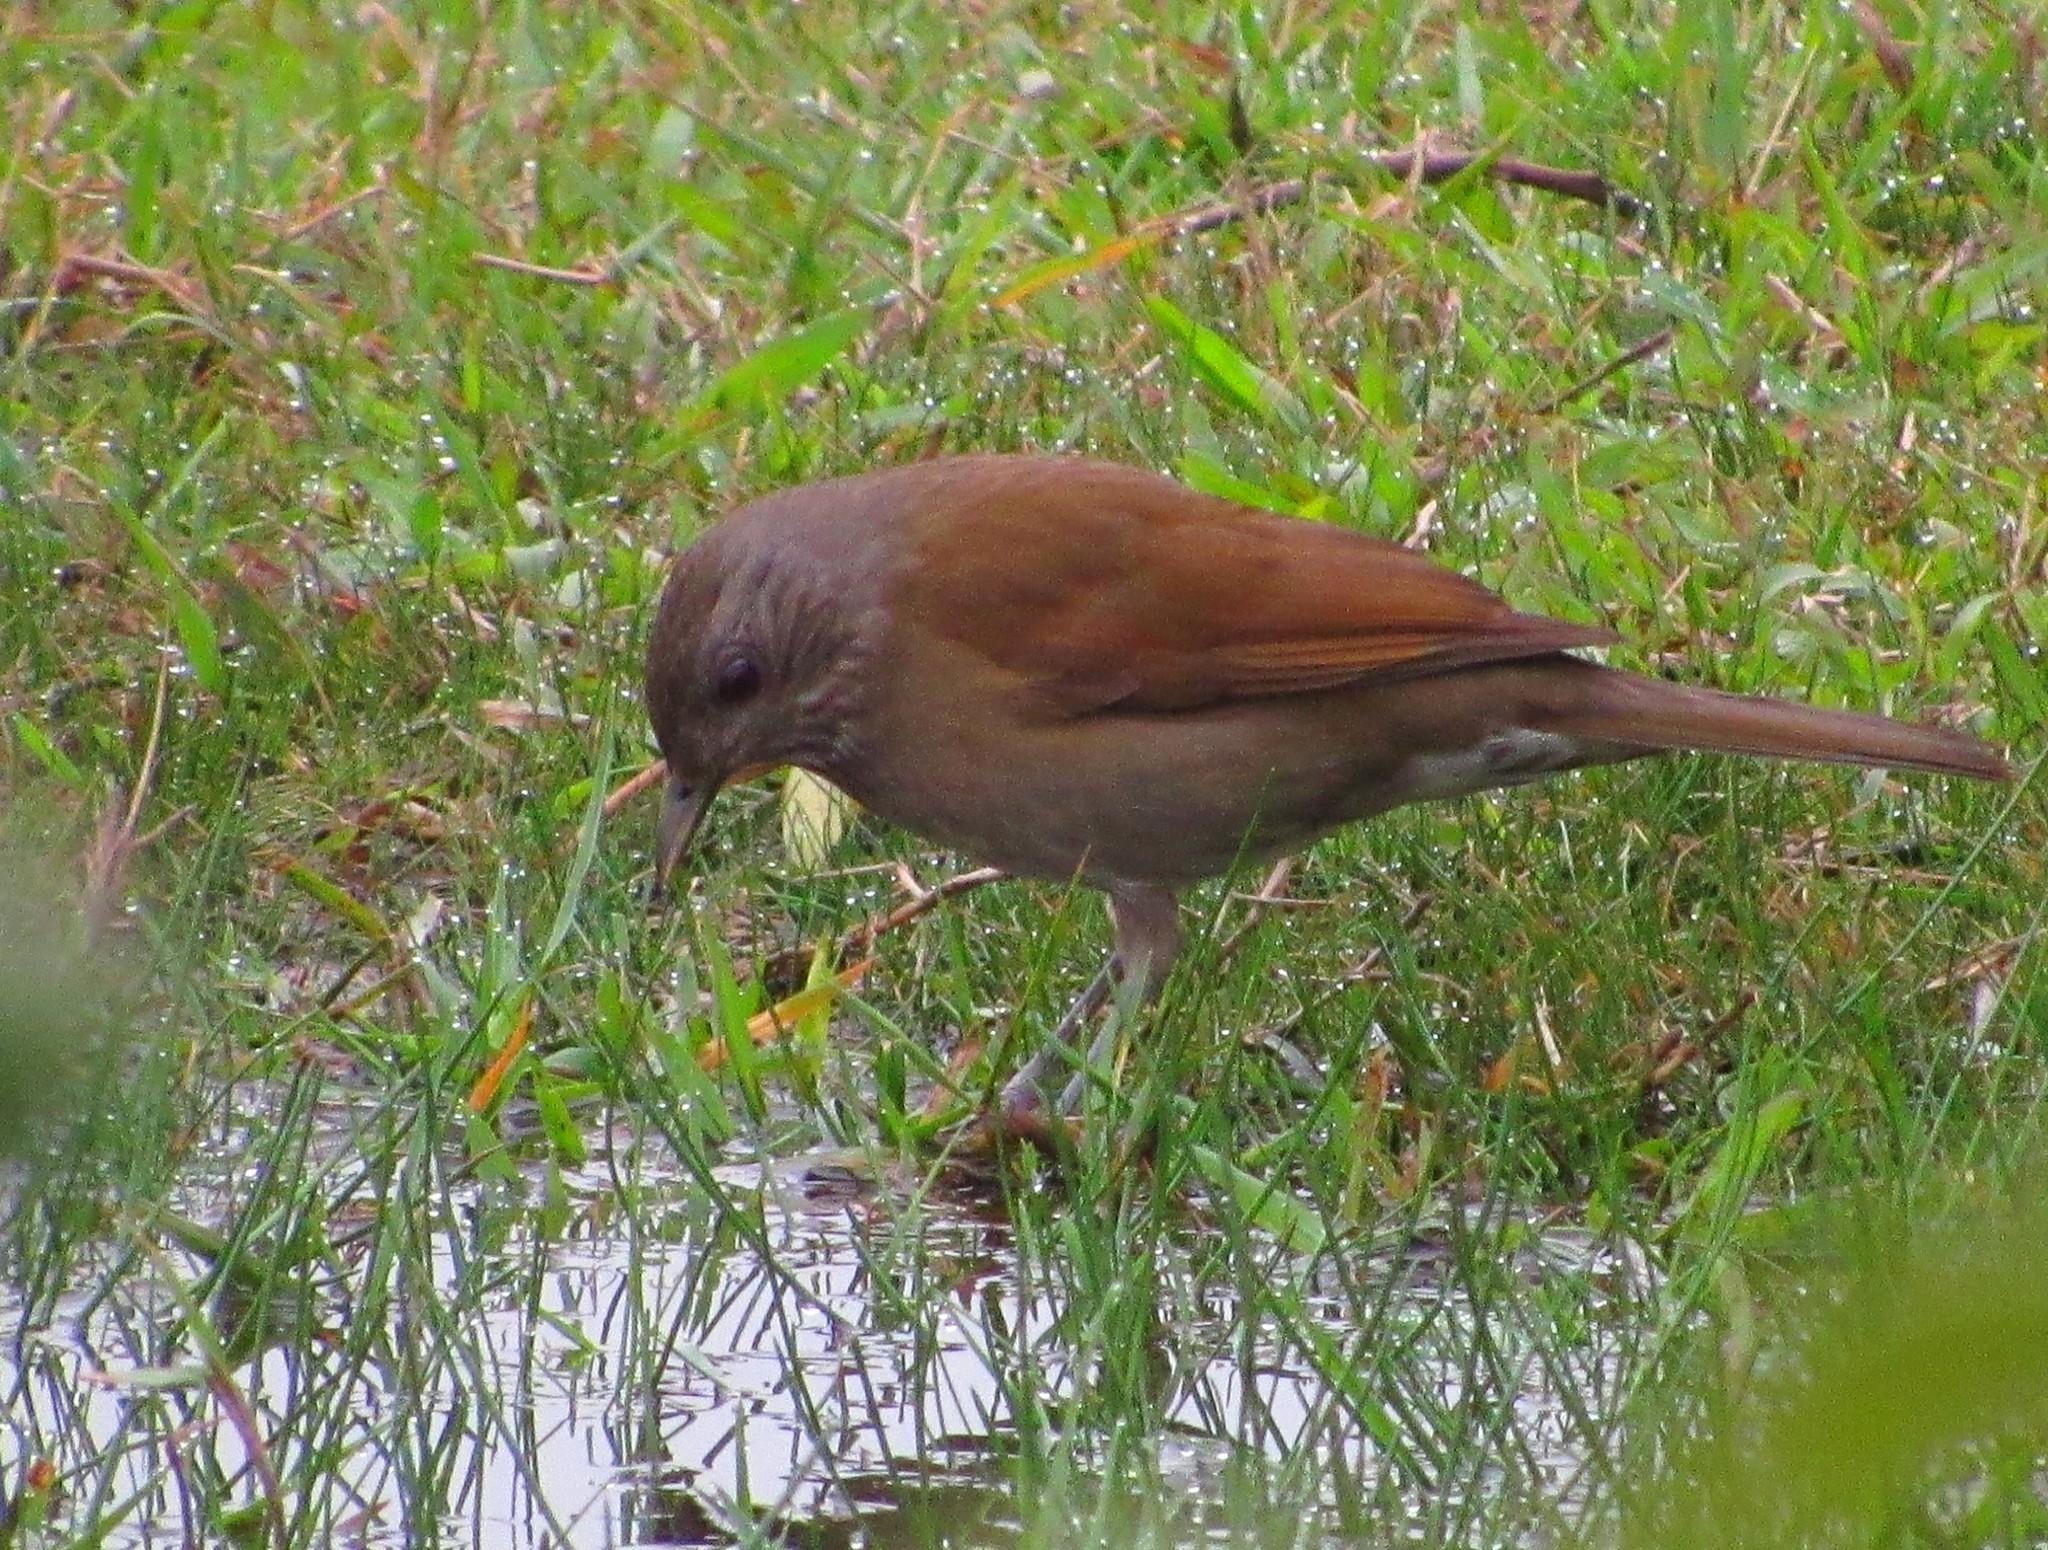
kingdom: Animalia
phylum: Chordata
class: Aves
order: Passeriformes
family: Turdidae
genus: Turdus
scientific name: Turdus leucomelas
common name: Pale-breasted thrush
